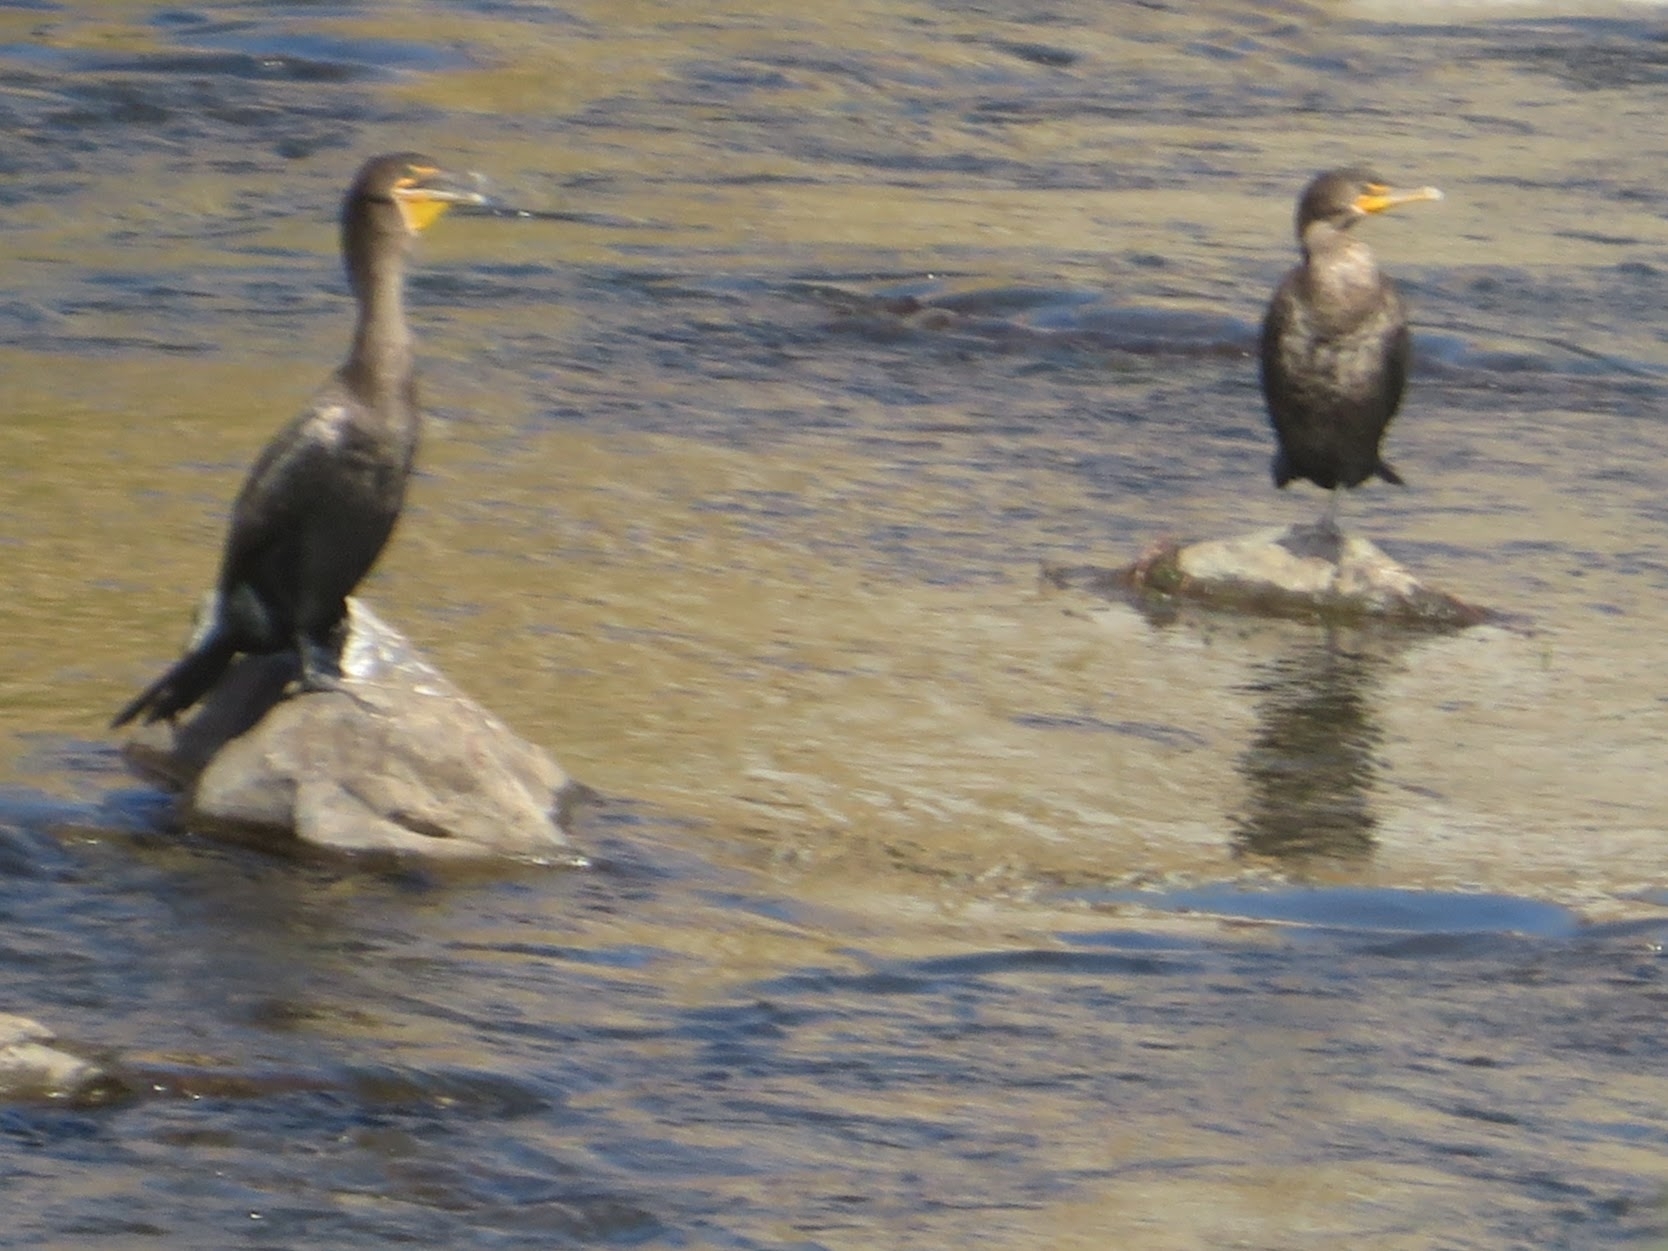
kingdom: Animalia
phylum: Chordata
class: Aves
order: Suliformes
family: Phalacrocoracidae
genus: Phalacrocorax
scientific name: Phalacrocorax auritus
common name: Double-crested cormorant
